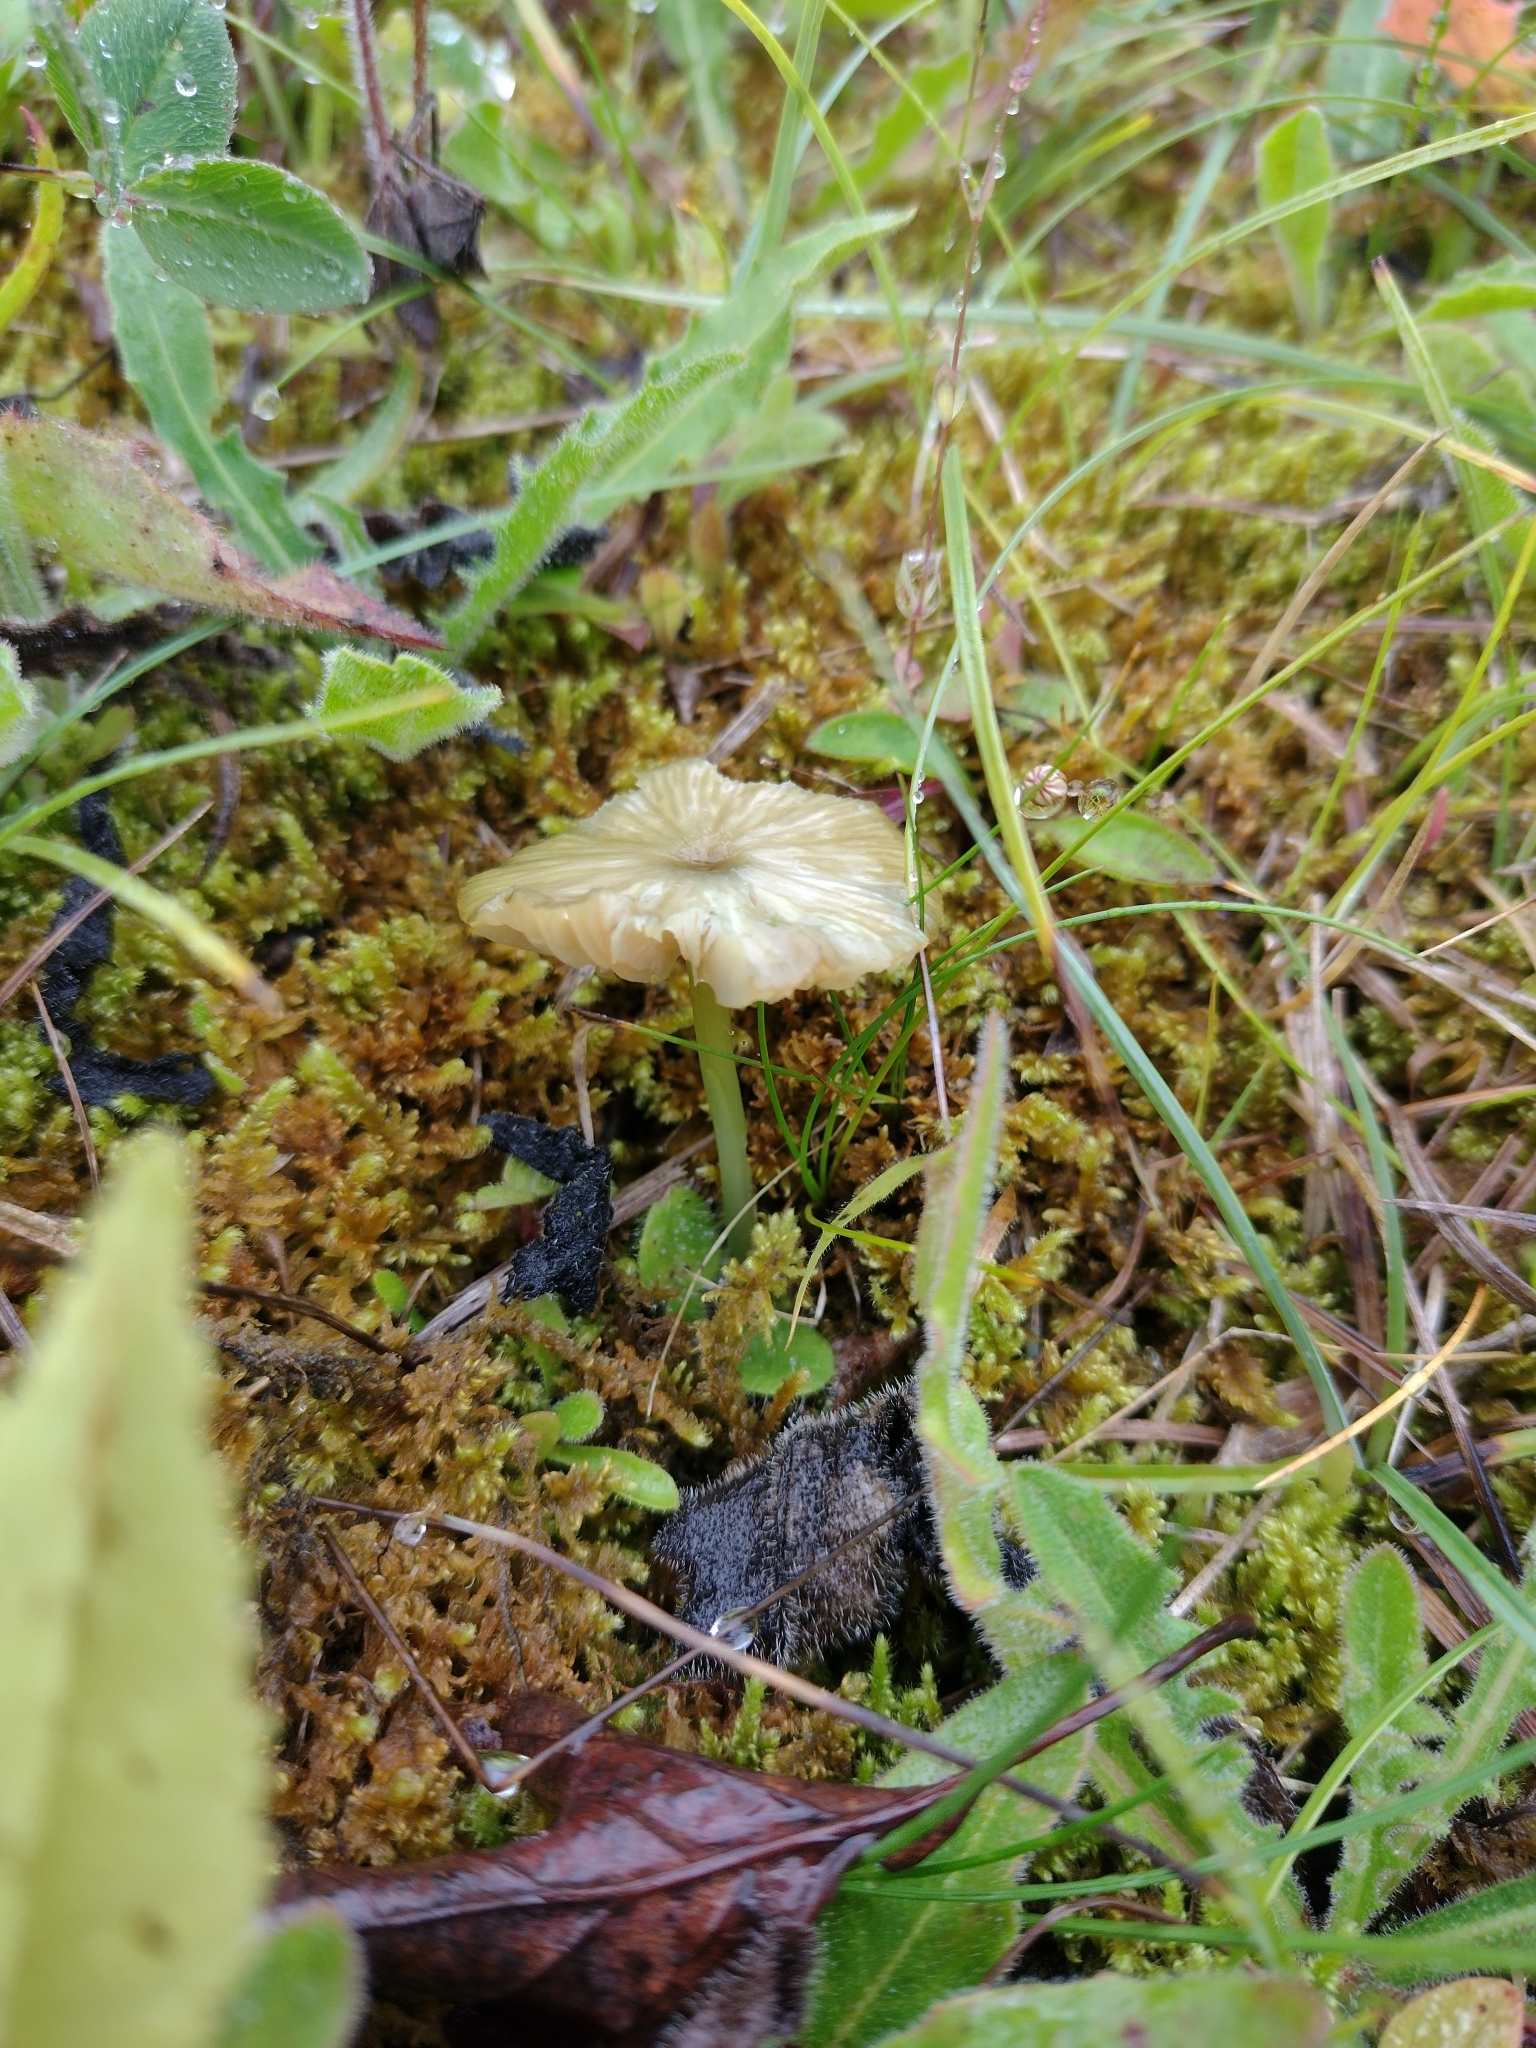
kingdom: Fungi
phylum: Basidiomycota
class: Agaricomycetes
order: Agaricales
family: Entolomataceae
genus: Entoloma
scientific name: Entoloma incanum
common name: Mousepee pinkgill
